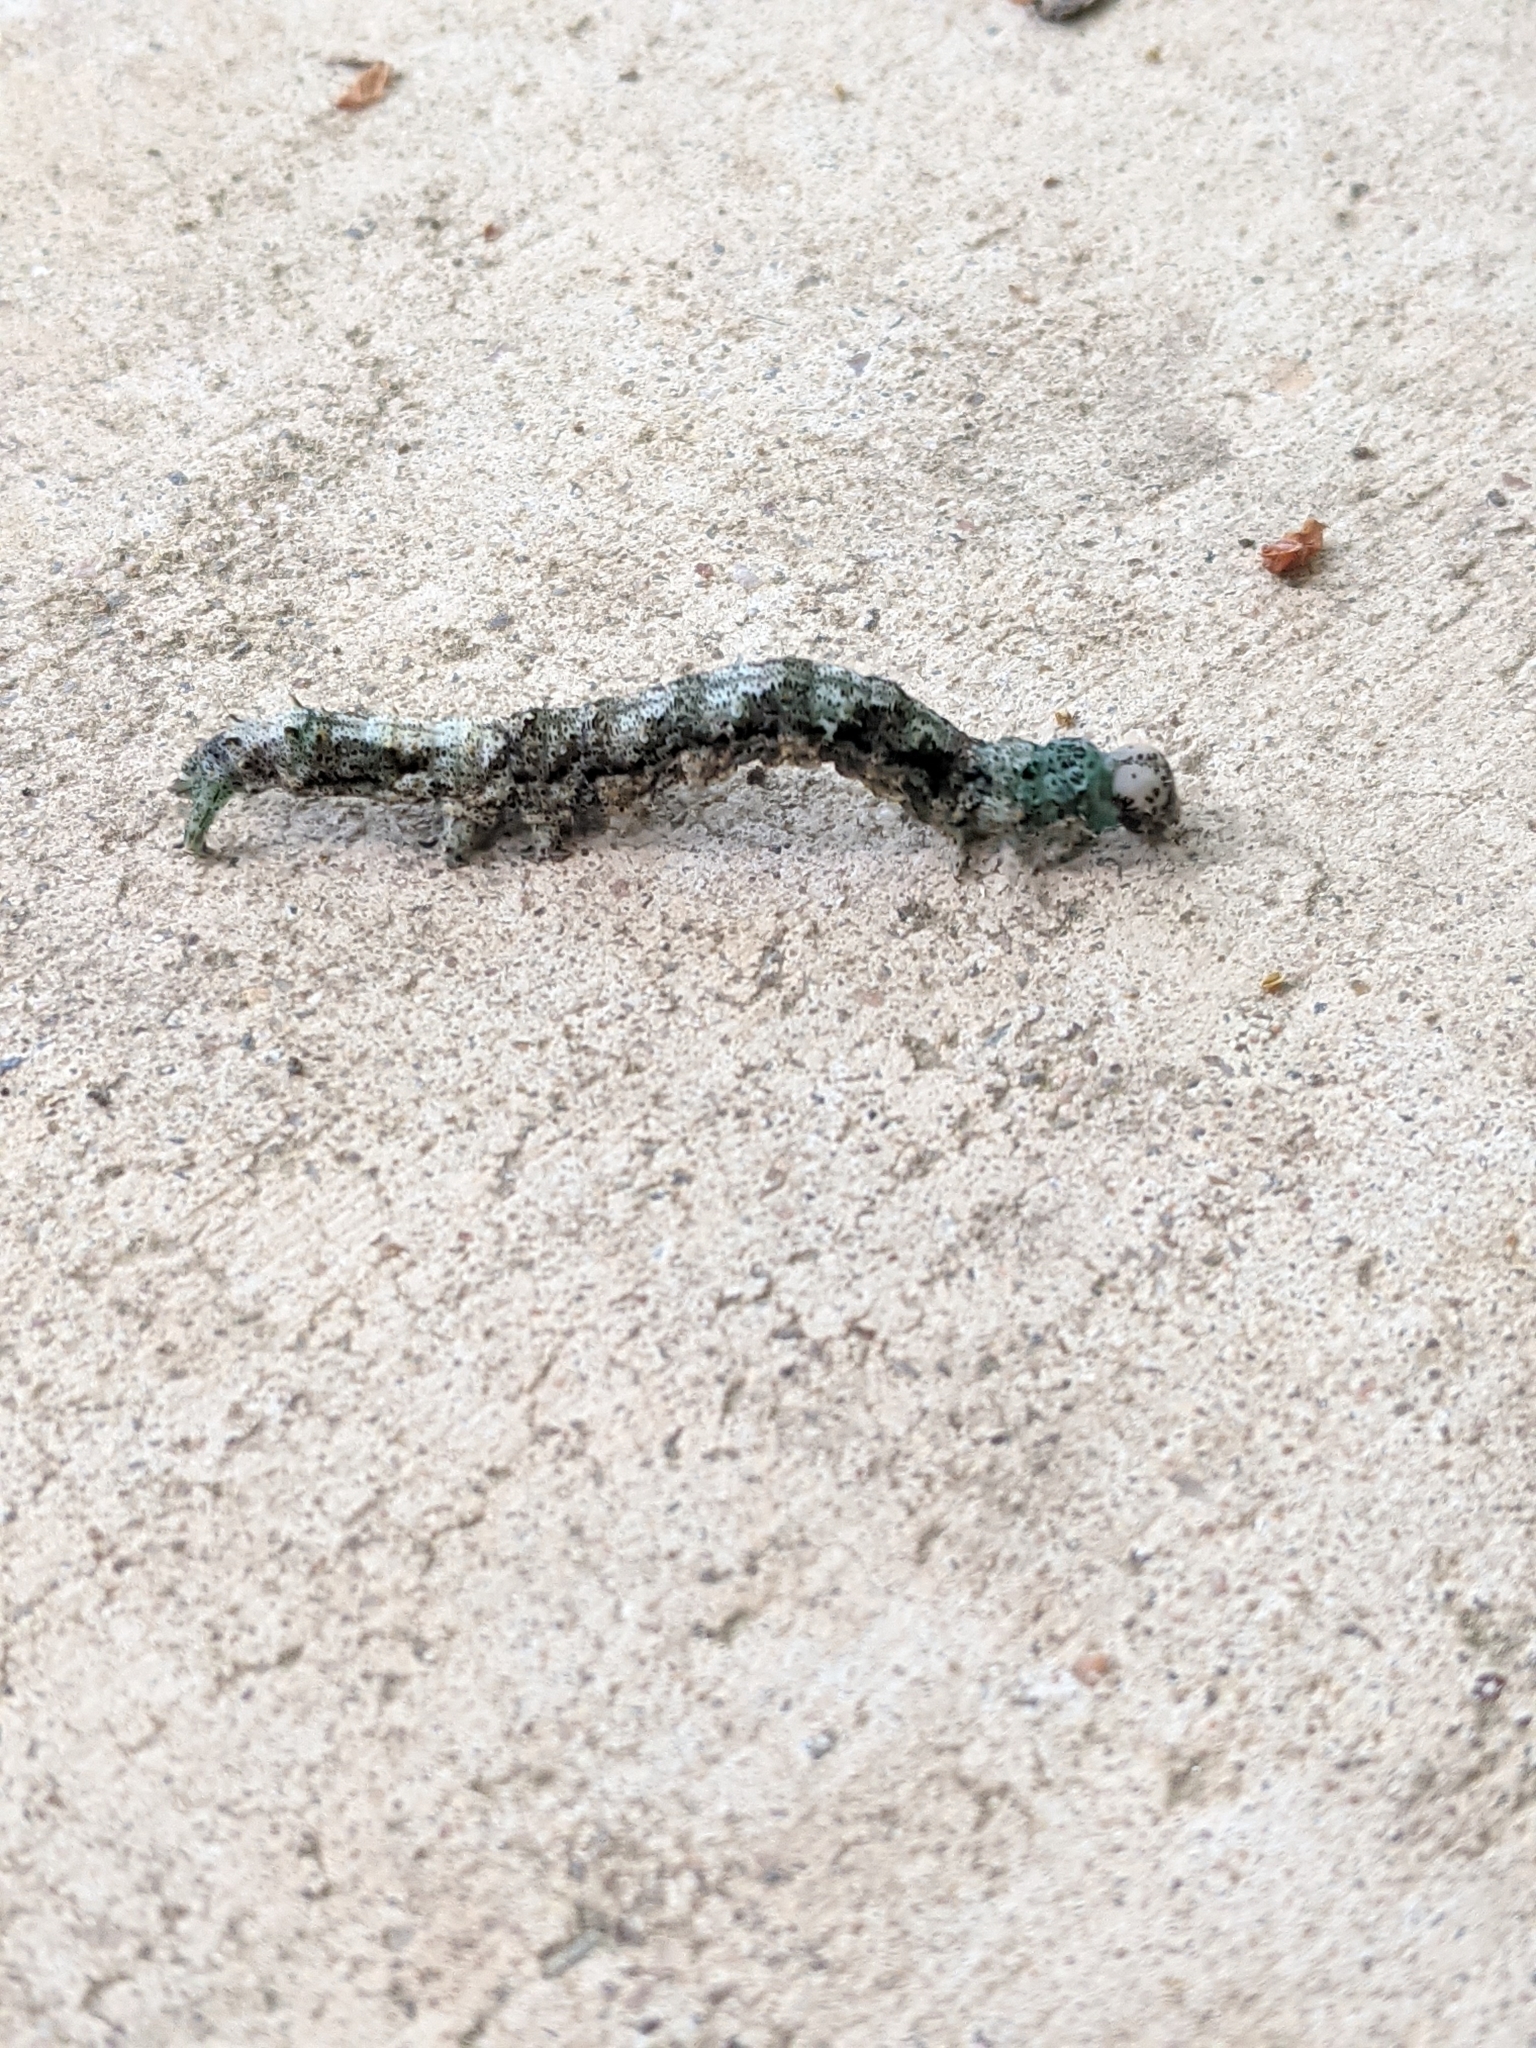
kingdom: Animalia
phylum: Arthropoda
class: Insecta
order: Lepidoptera
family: Erebidae
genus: Metria
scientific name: Metria amella
